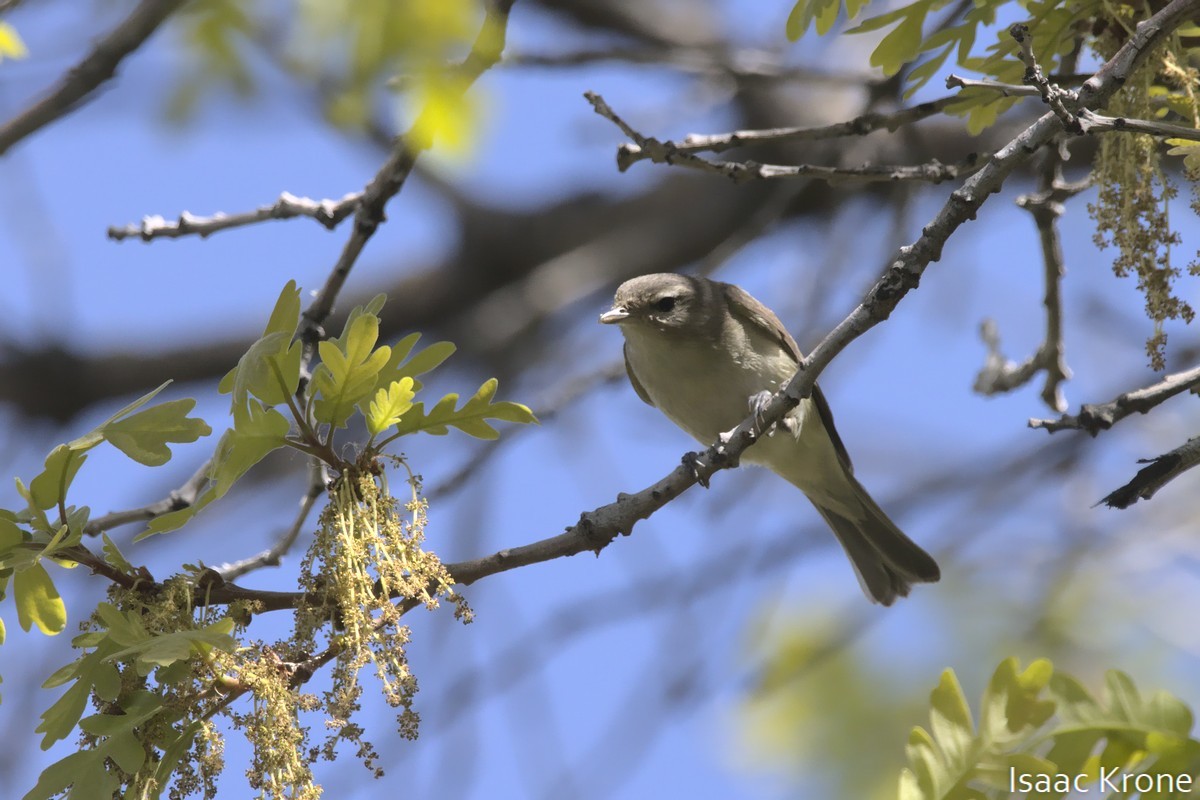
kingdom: Animalia
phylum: Chordata
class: Aves
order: Passeriformes
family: Vireonidae
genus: Vireo
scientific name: Vireo gilvus
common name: Warbling vireo
